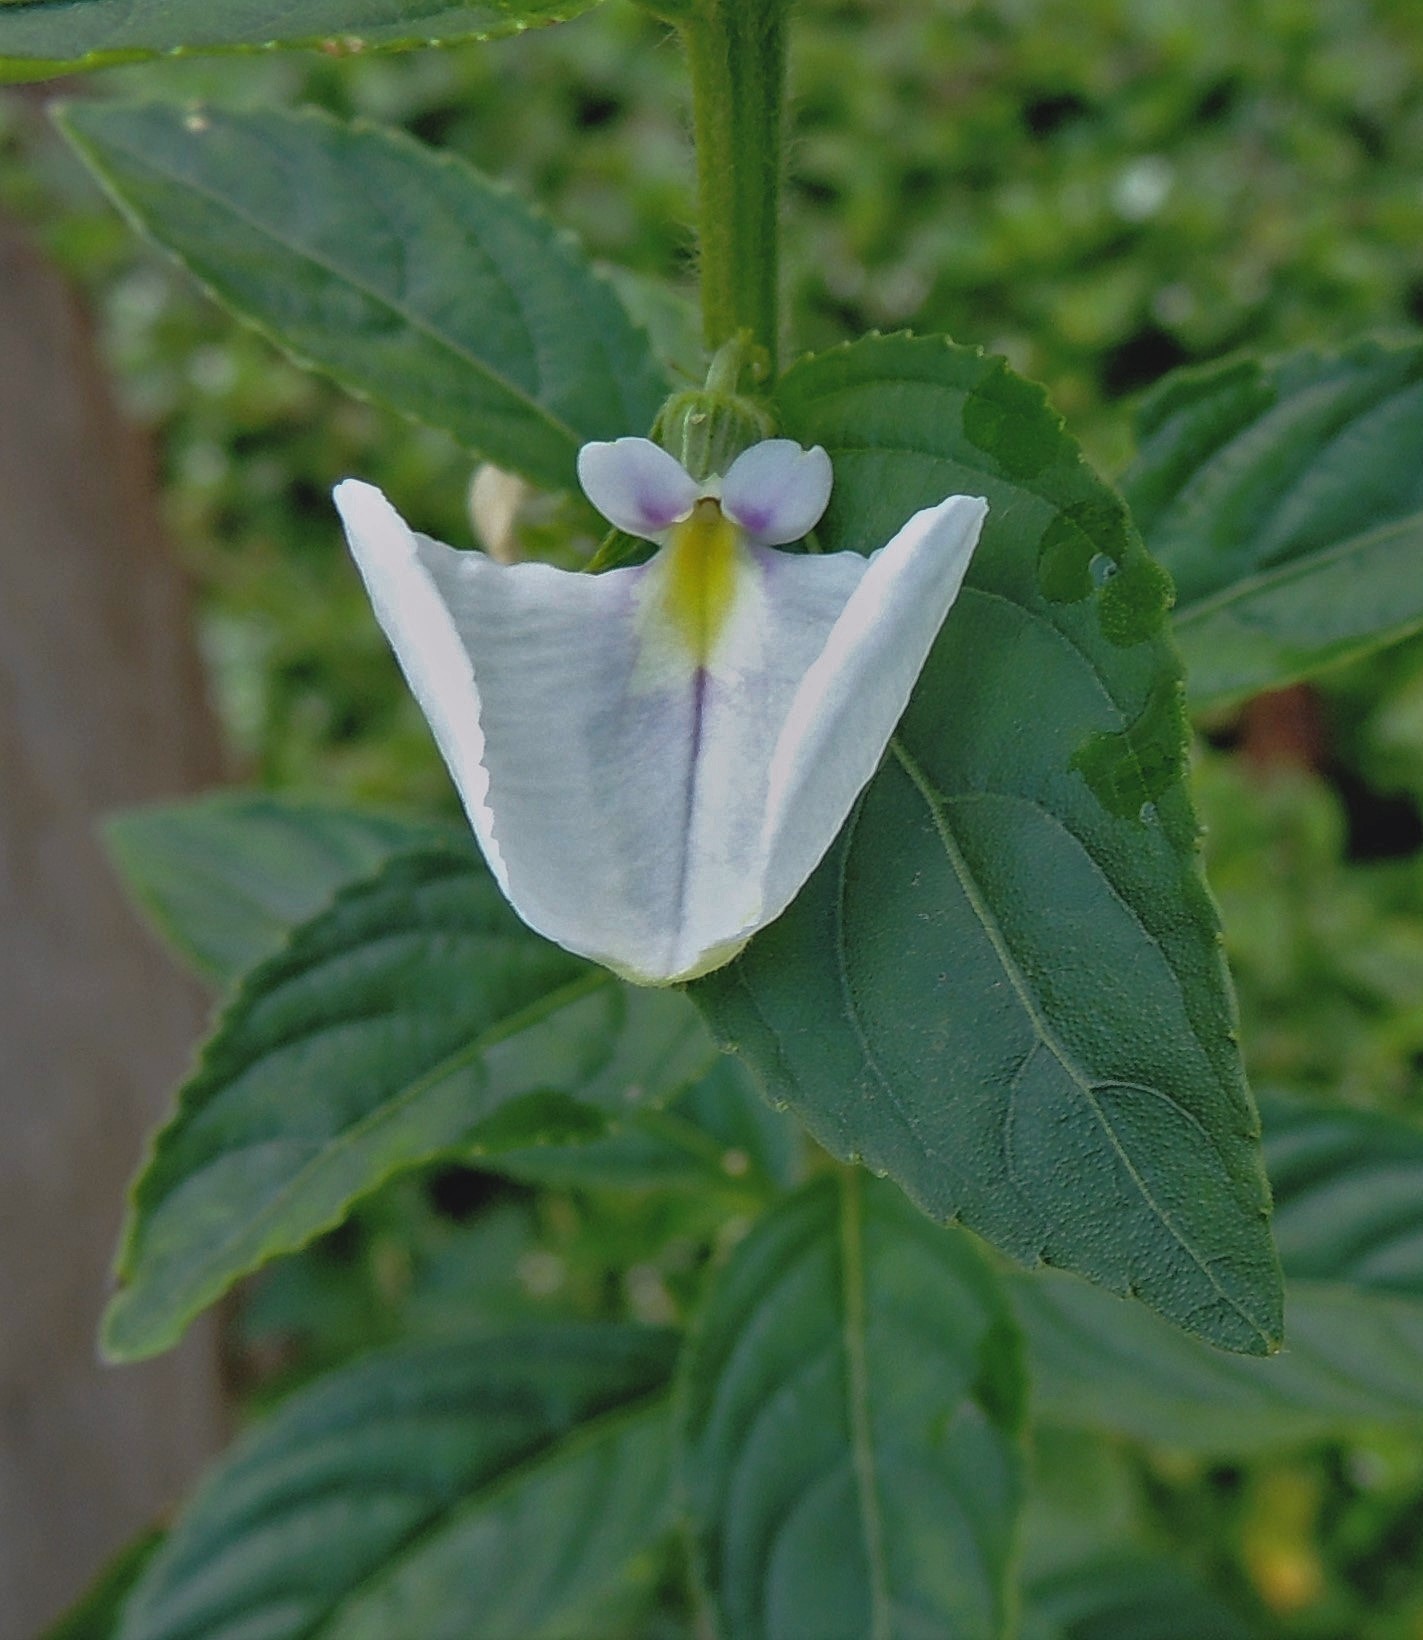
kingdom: Plantae
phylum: Tracheophyta
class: Magnoliopsida
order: Malpighiales
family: Violaceae
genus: Pombalia
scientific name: Pombalia communis
